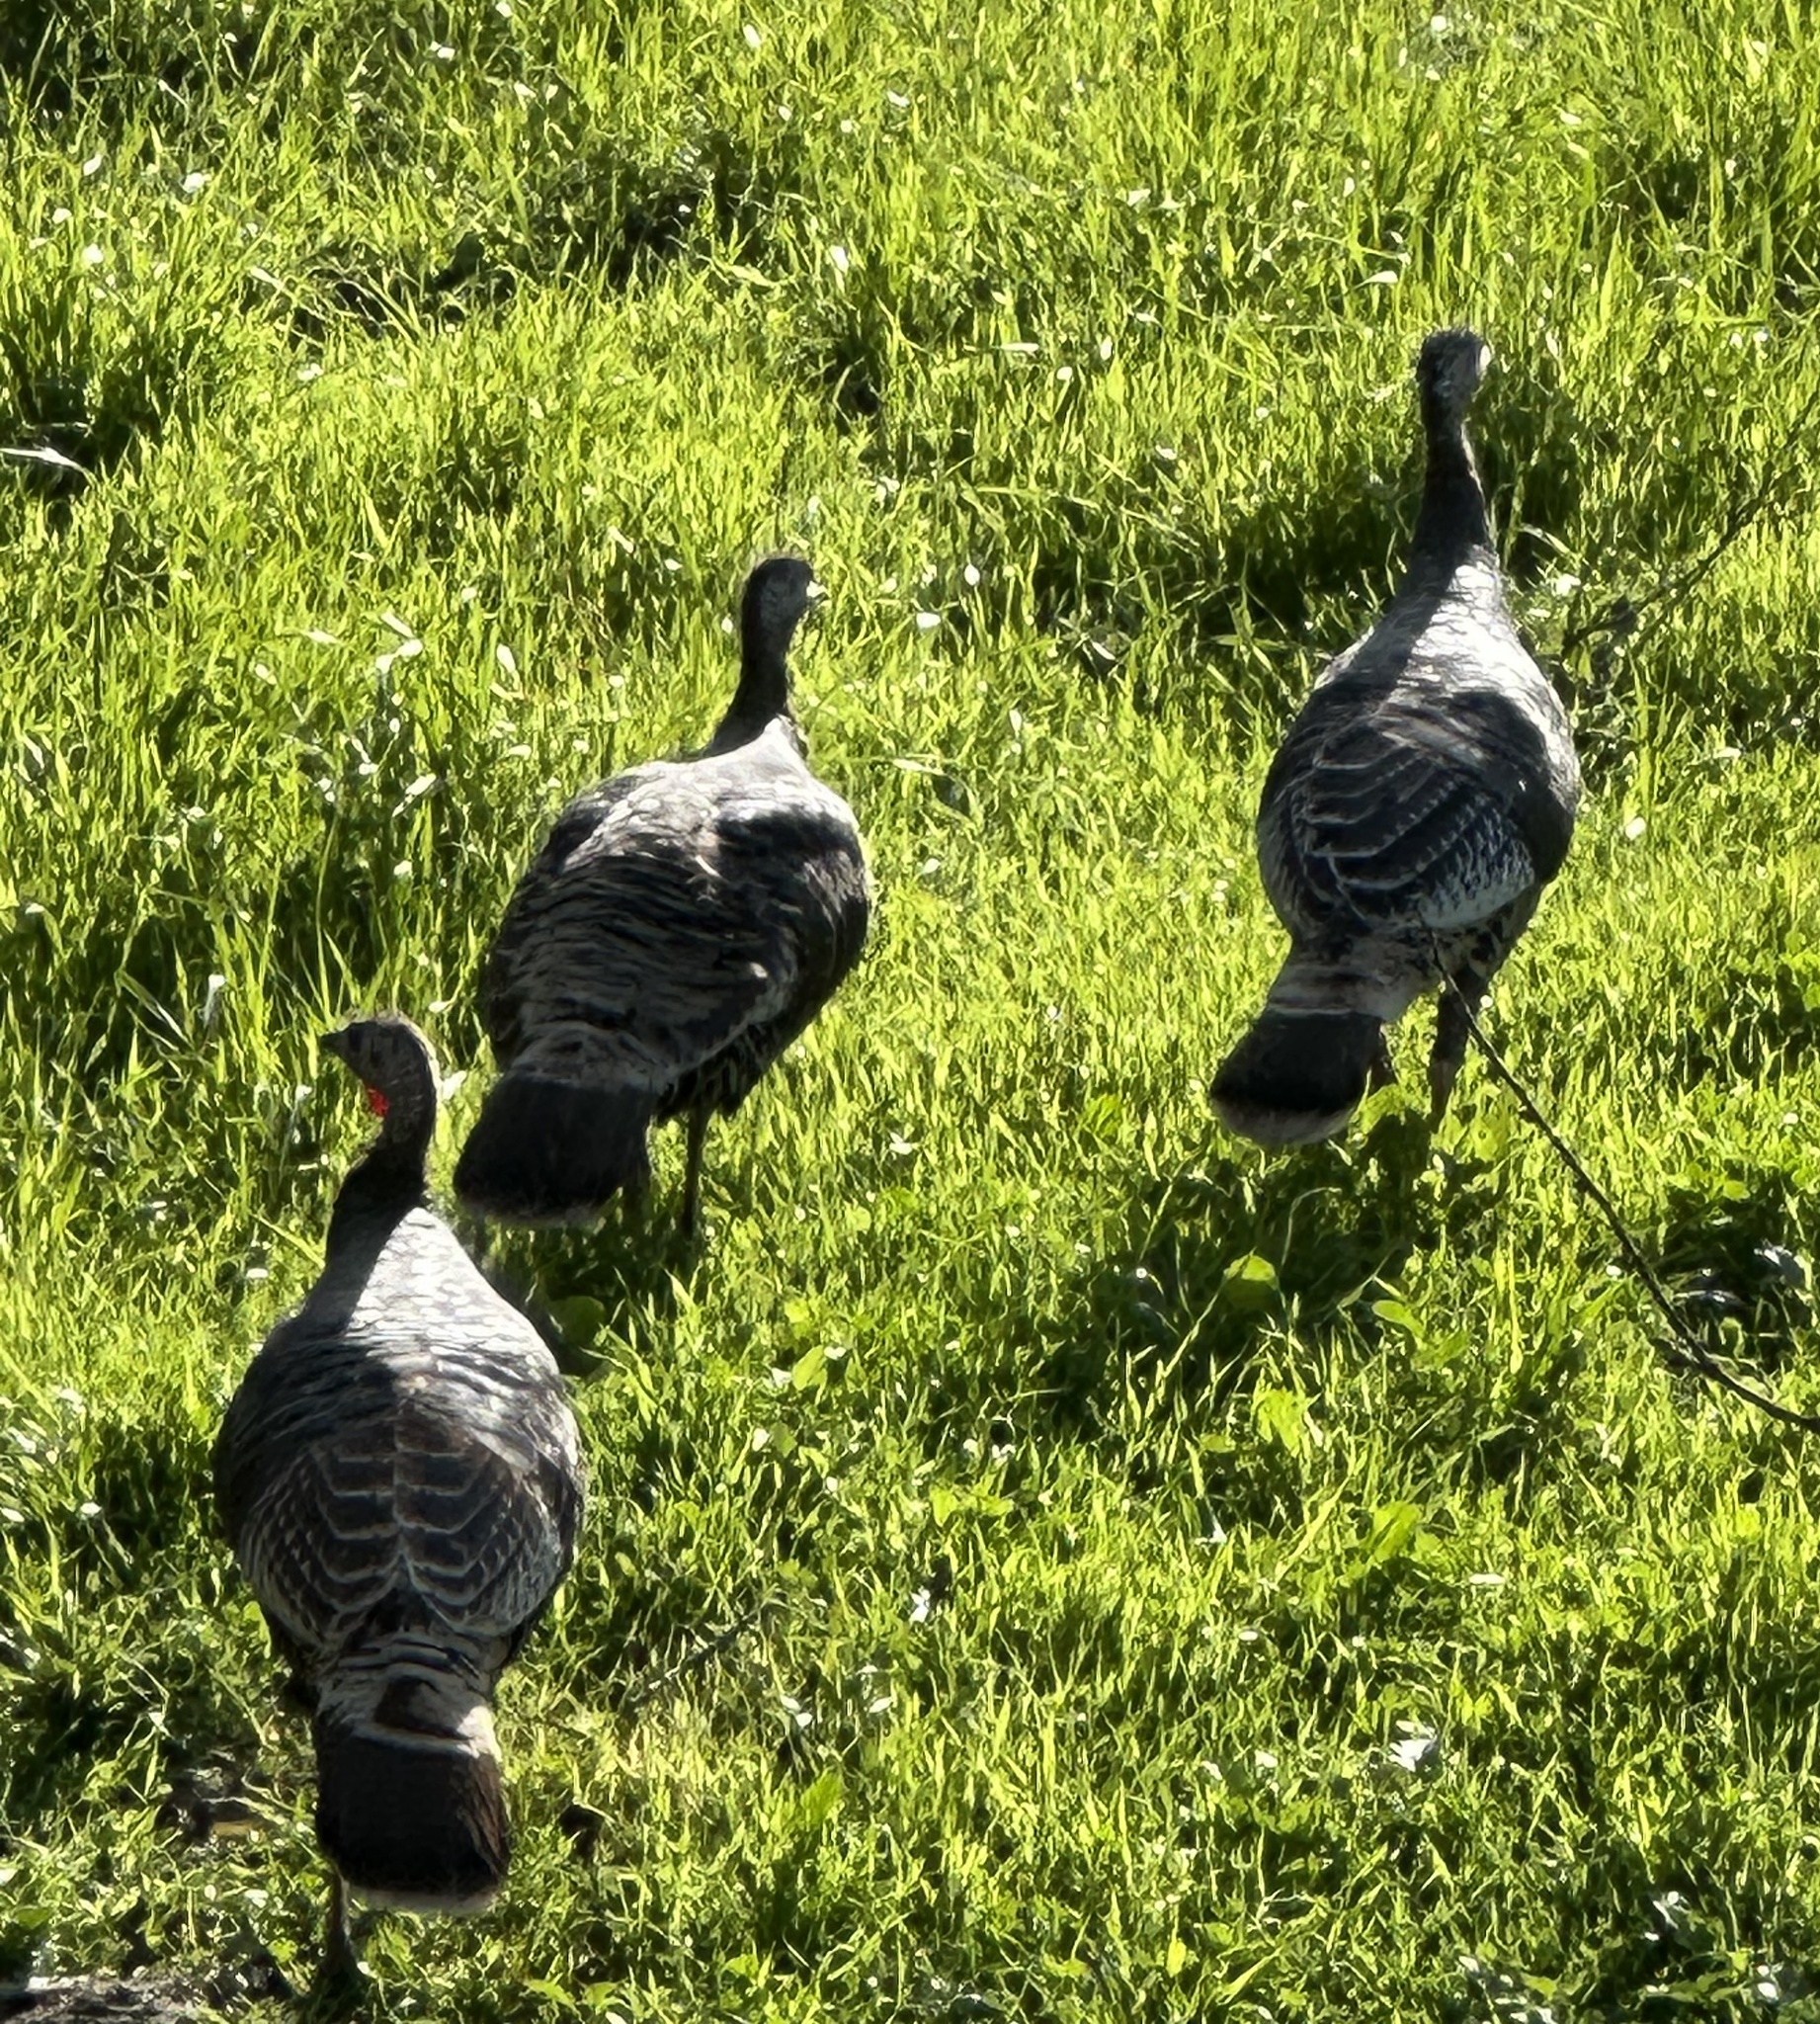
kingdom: Animalia
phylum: Chordata
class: Aves
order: Galliformes
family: Phasianidae
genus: Meleagris
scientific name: Meleagris gallopavo
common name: Wild turkey
